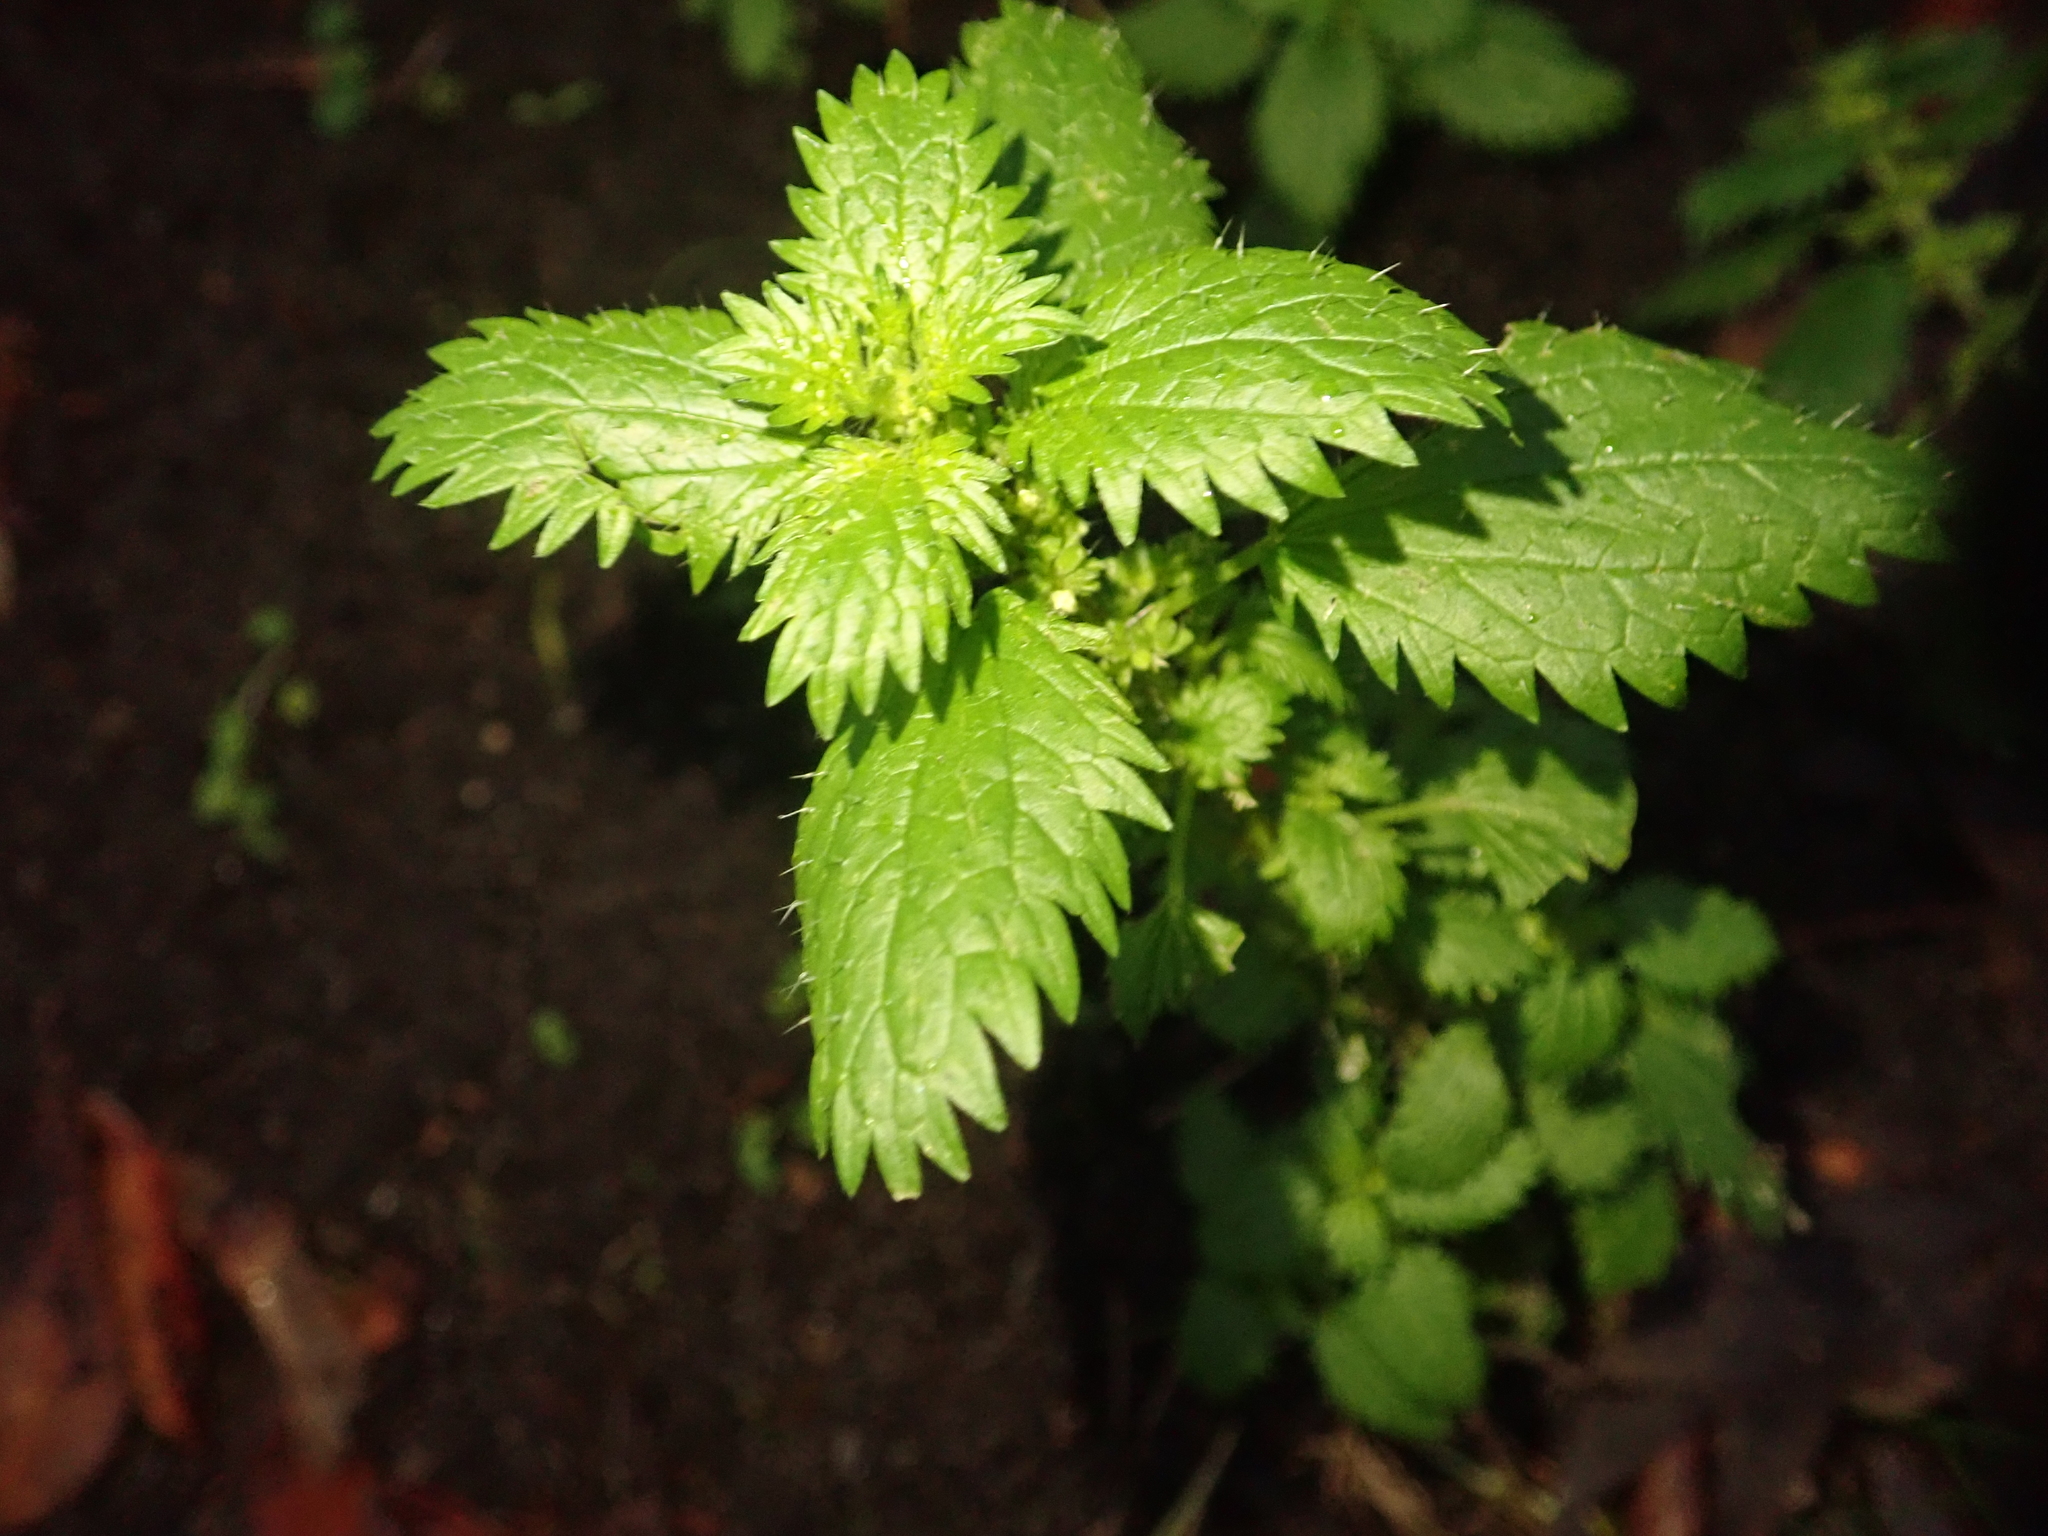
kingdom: Plantae
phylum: Tracheophyta
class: Magnoliopsida
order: Rosales
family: Urticaceae
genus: Urtica
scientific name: Urtica urens
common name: Dwarf nettle
